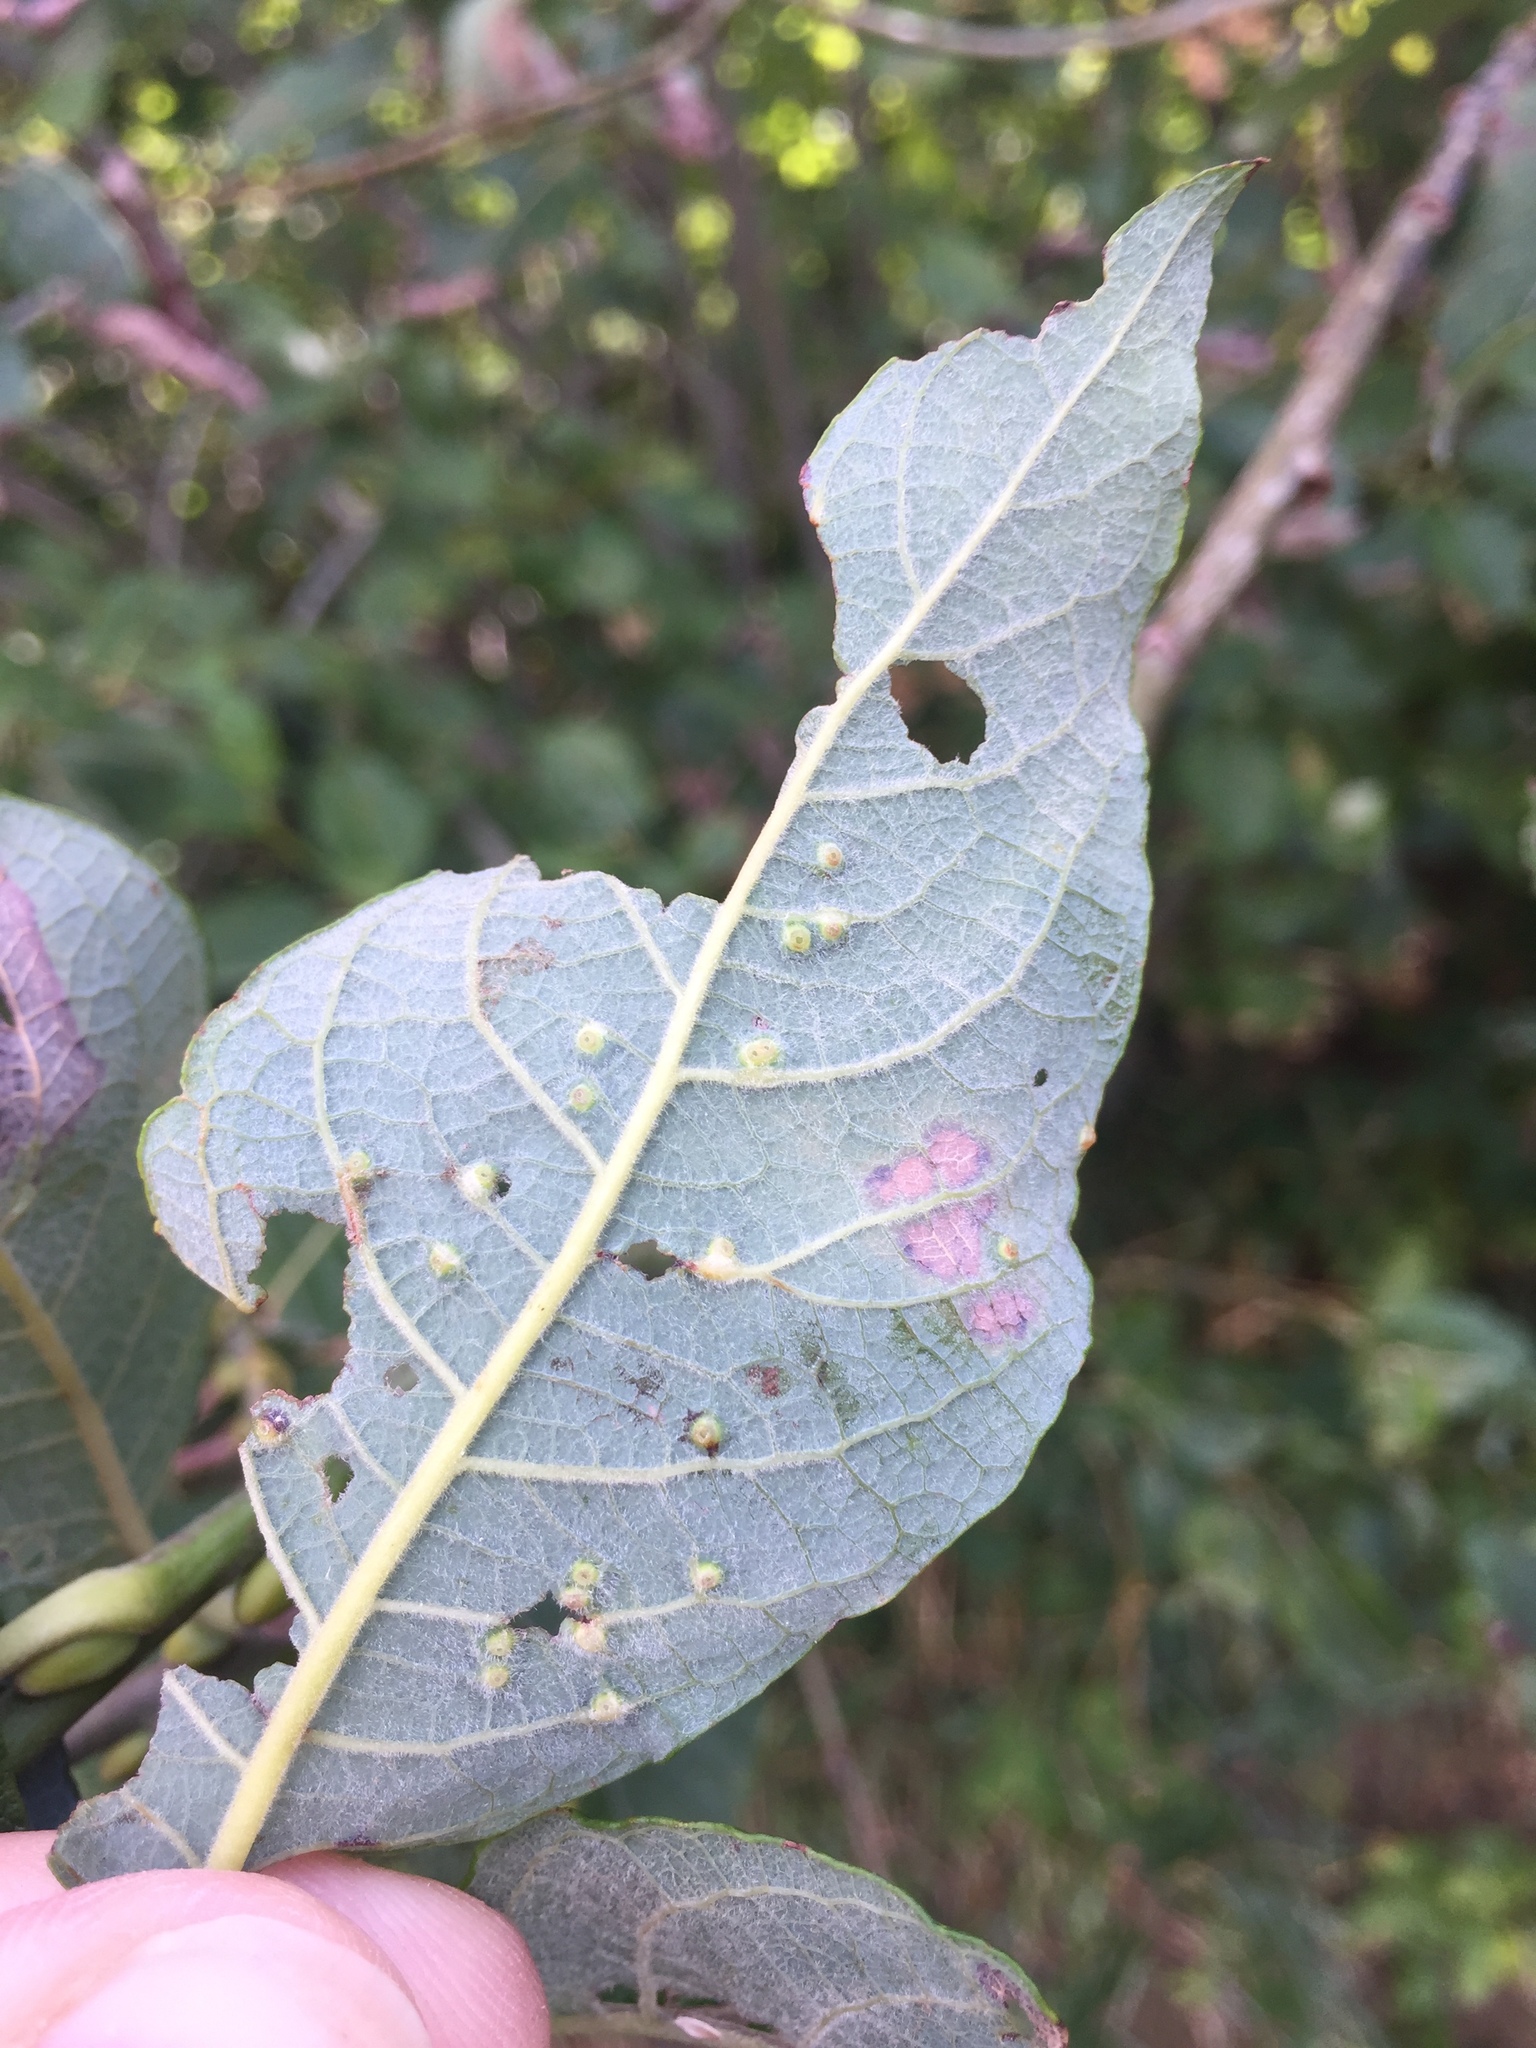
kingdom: Animalia
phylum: Arthropoda
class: Insecta
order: Diptera
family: Cecidomyiidae
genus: Iteomyia
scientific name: Iteomyia capreae
